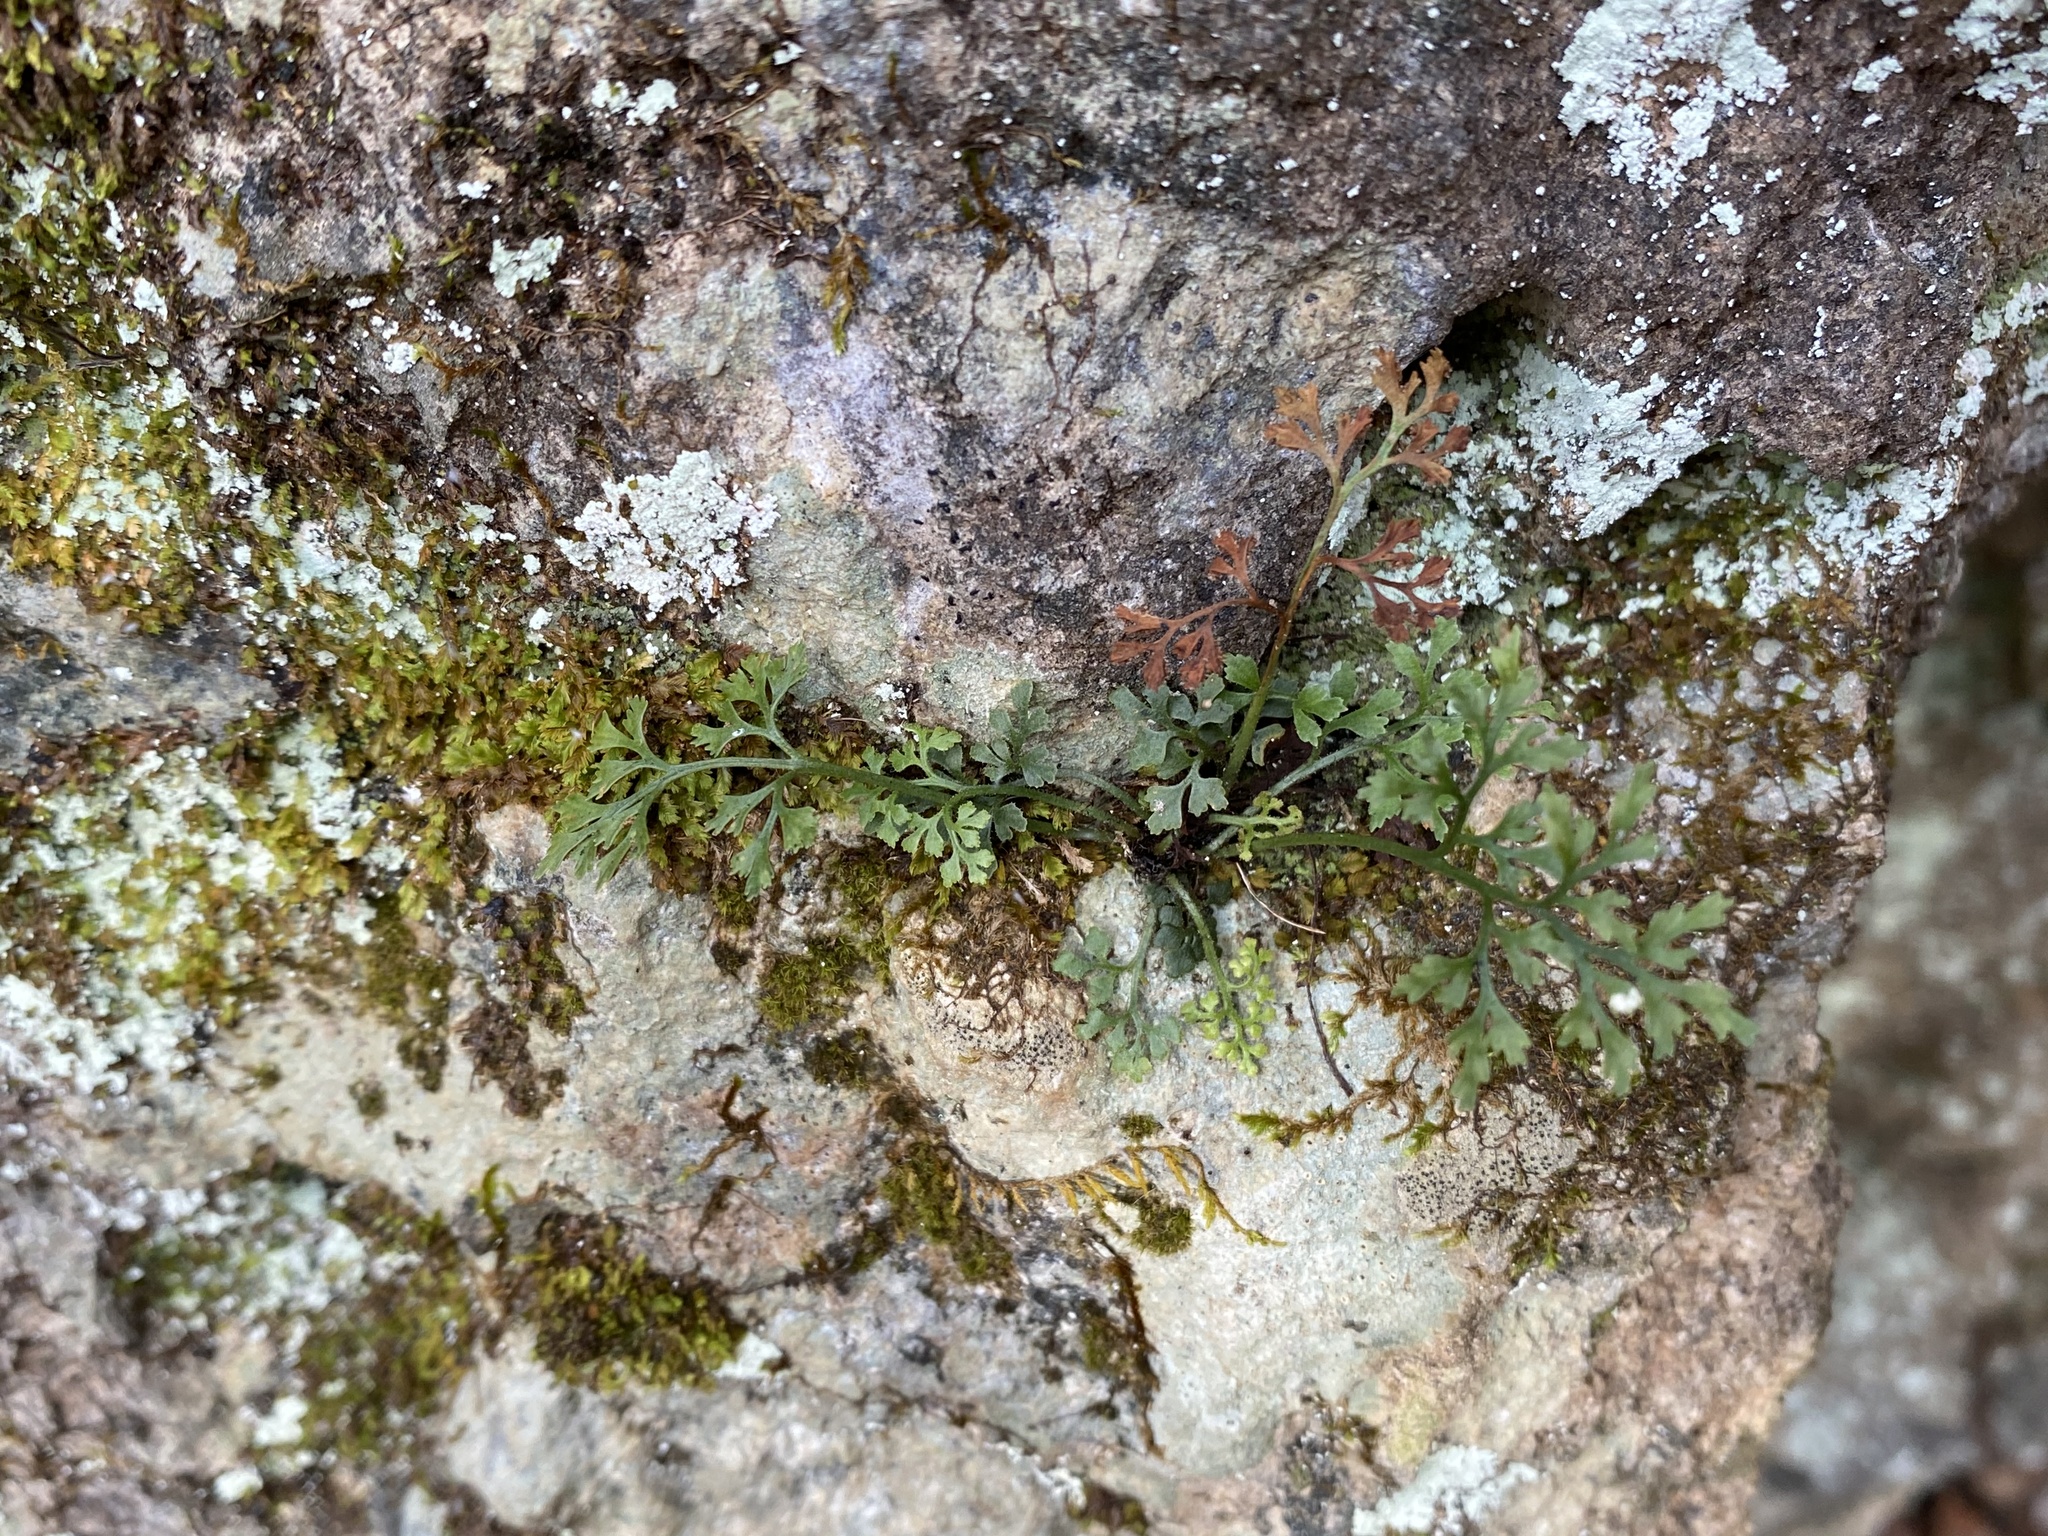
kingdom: Plantae
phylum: Tracheophyta
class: Polypodiopsida
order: Polypodiales
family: Aspleniaceae
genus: Asplenium
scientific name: Asplenium ruta-muraria
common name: Wall-rue
